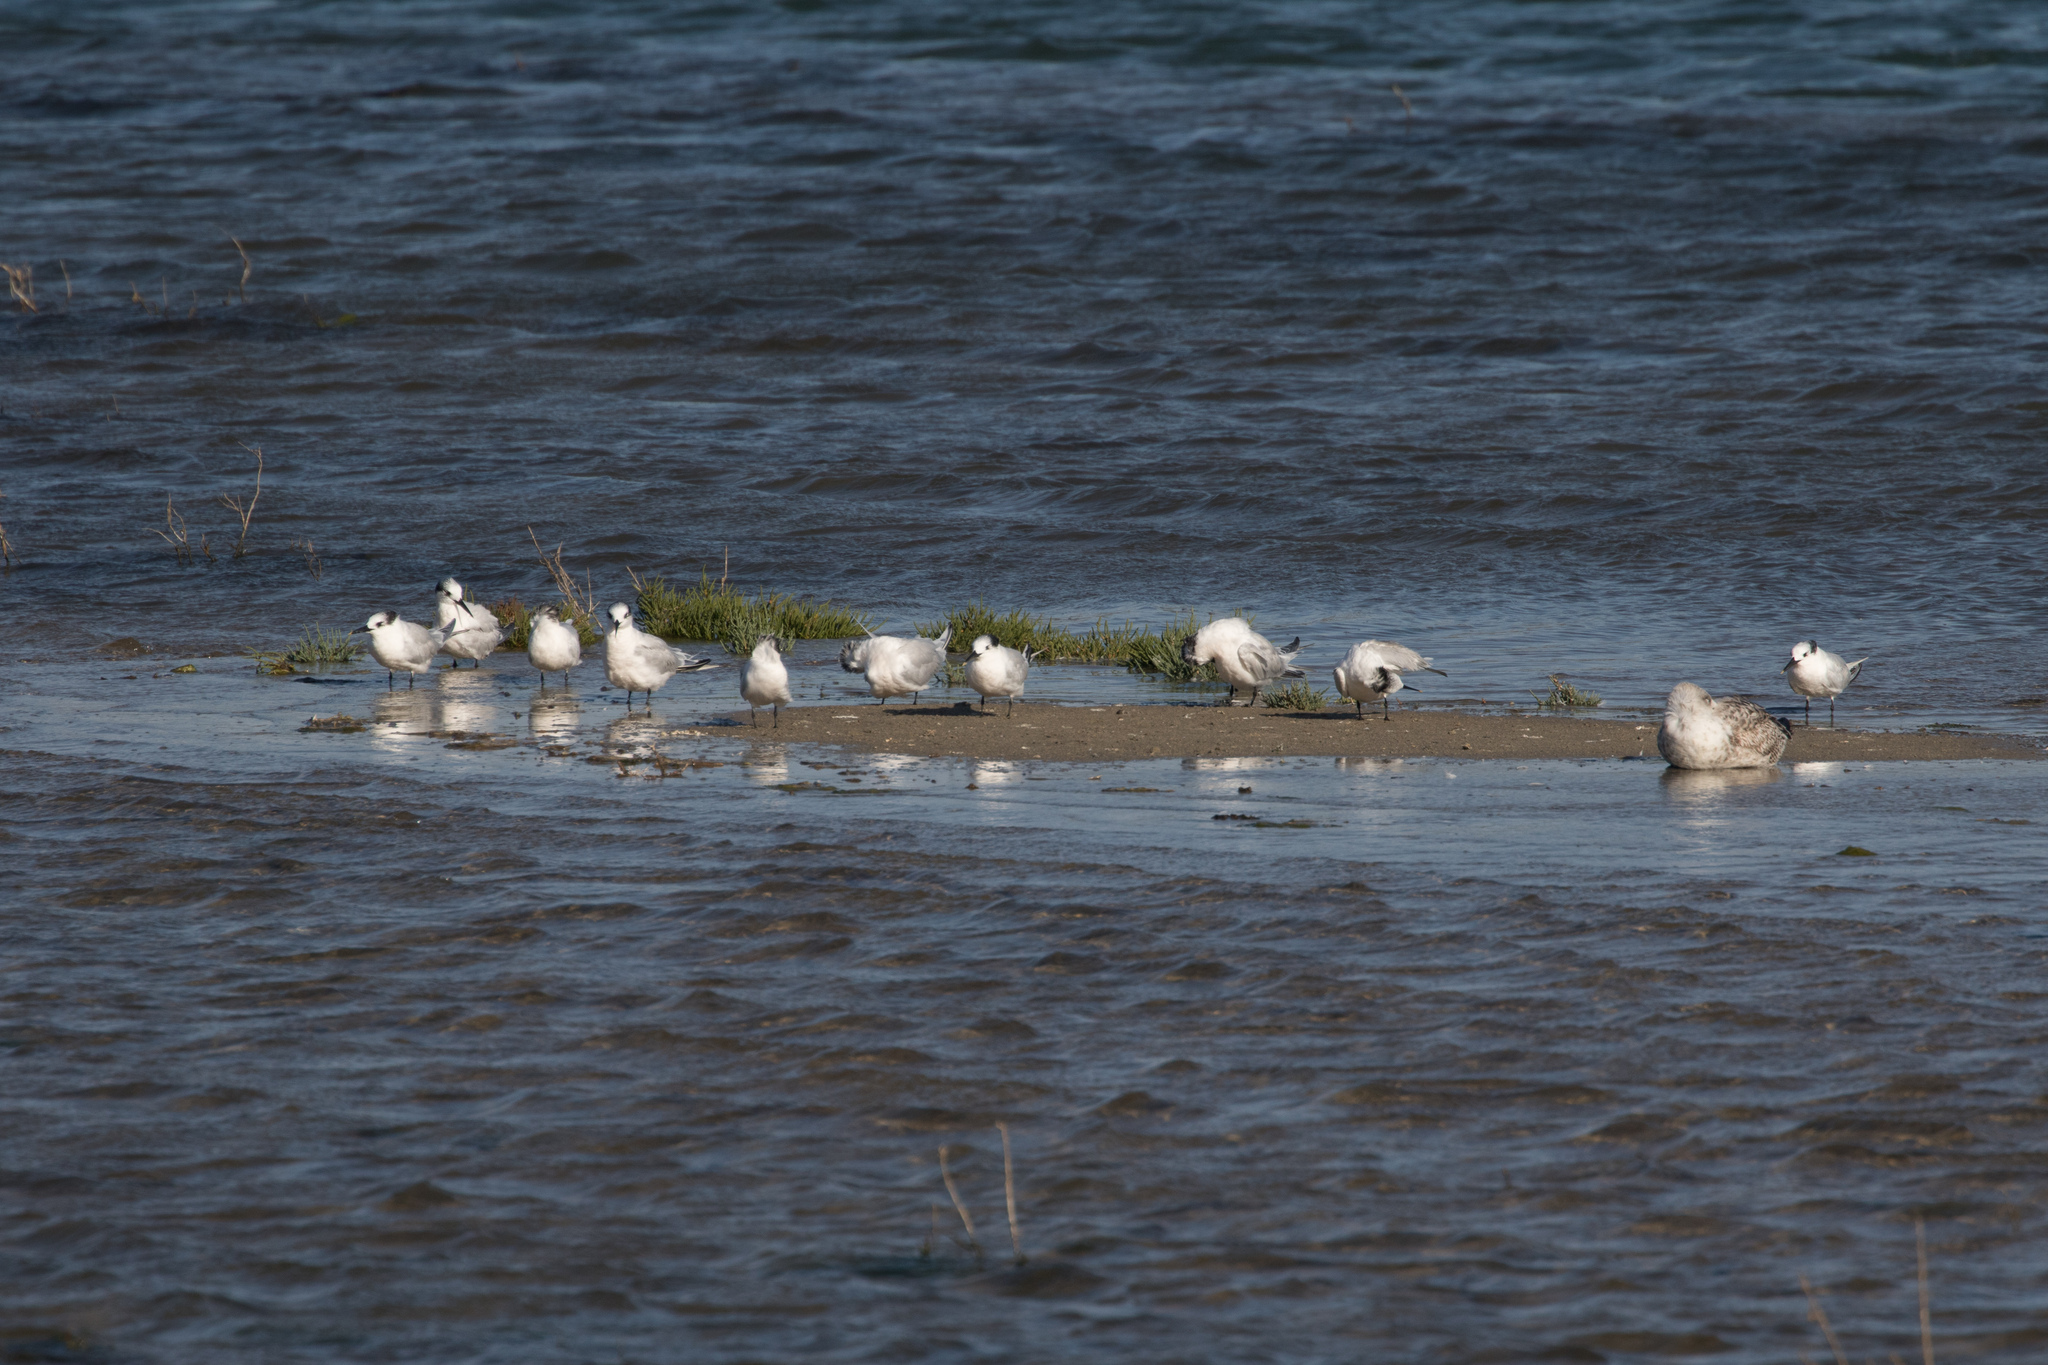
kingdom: Animalia
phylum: Chordata
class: Aves
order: Charadriiformes
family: Laridae
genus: Thalasseus
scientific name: Thalasseus sandvicensis
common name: Sandwich tern
